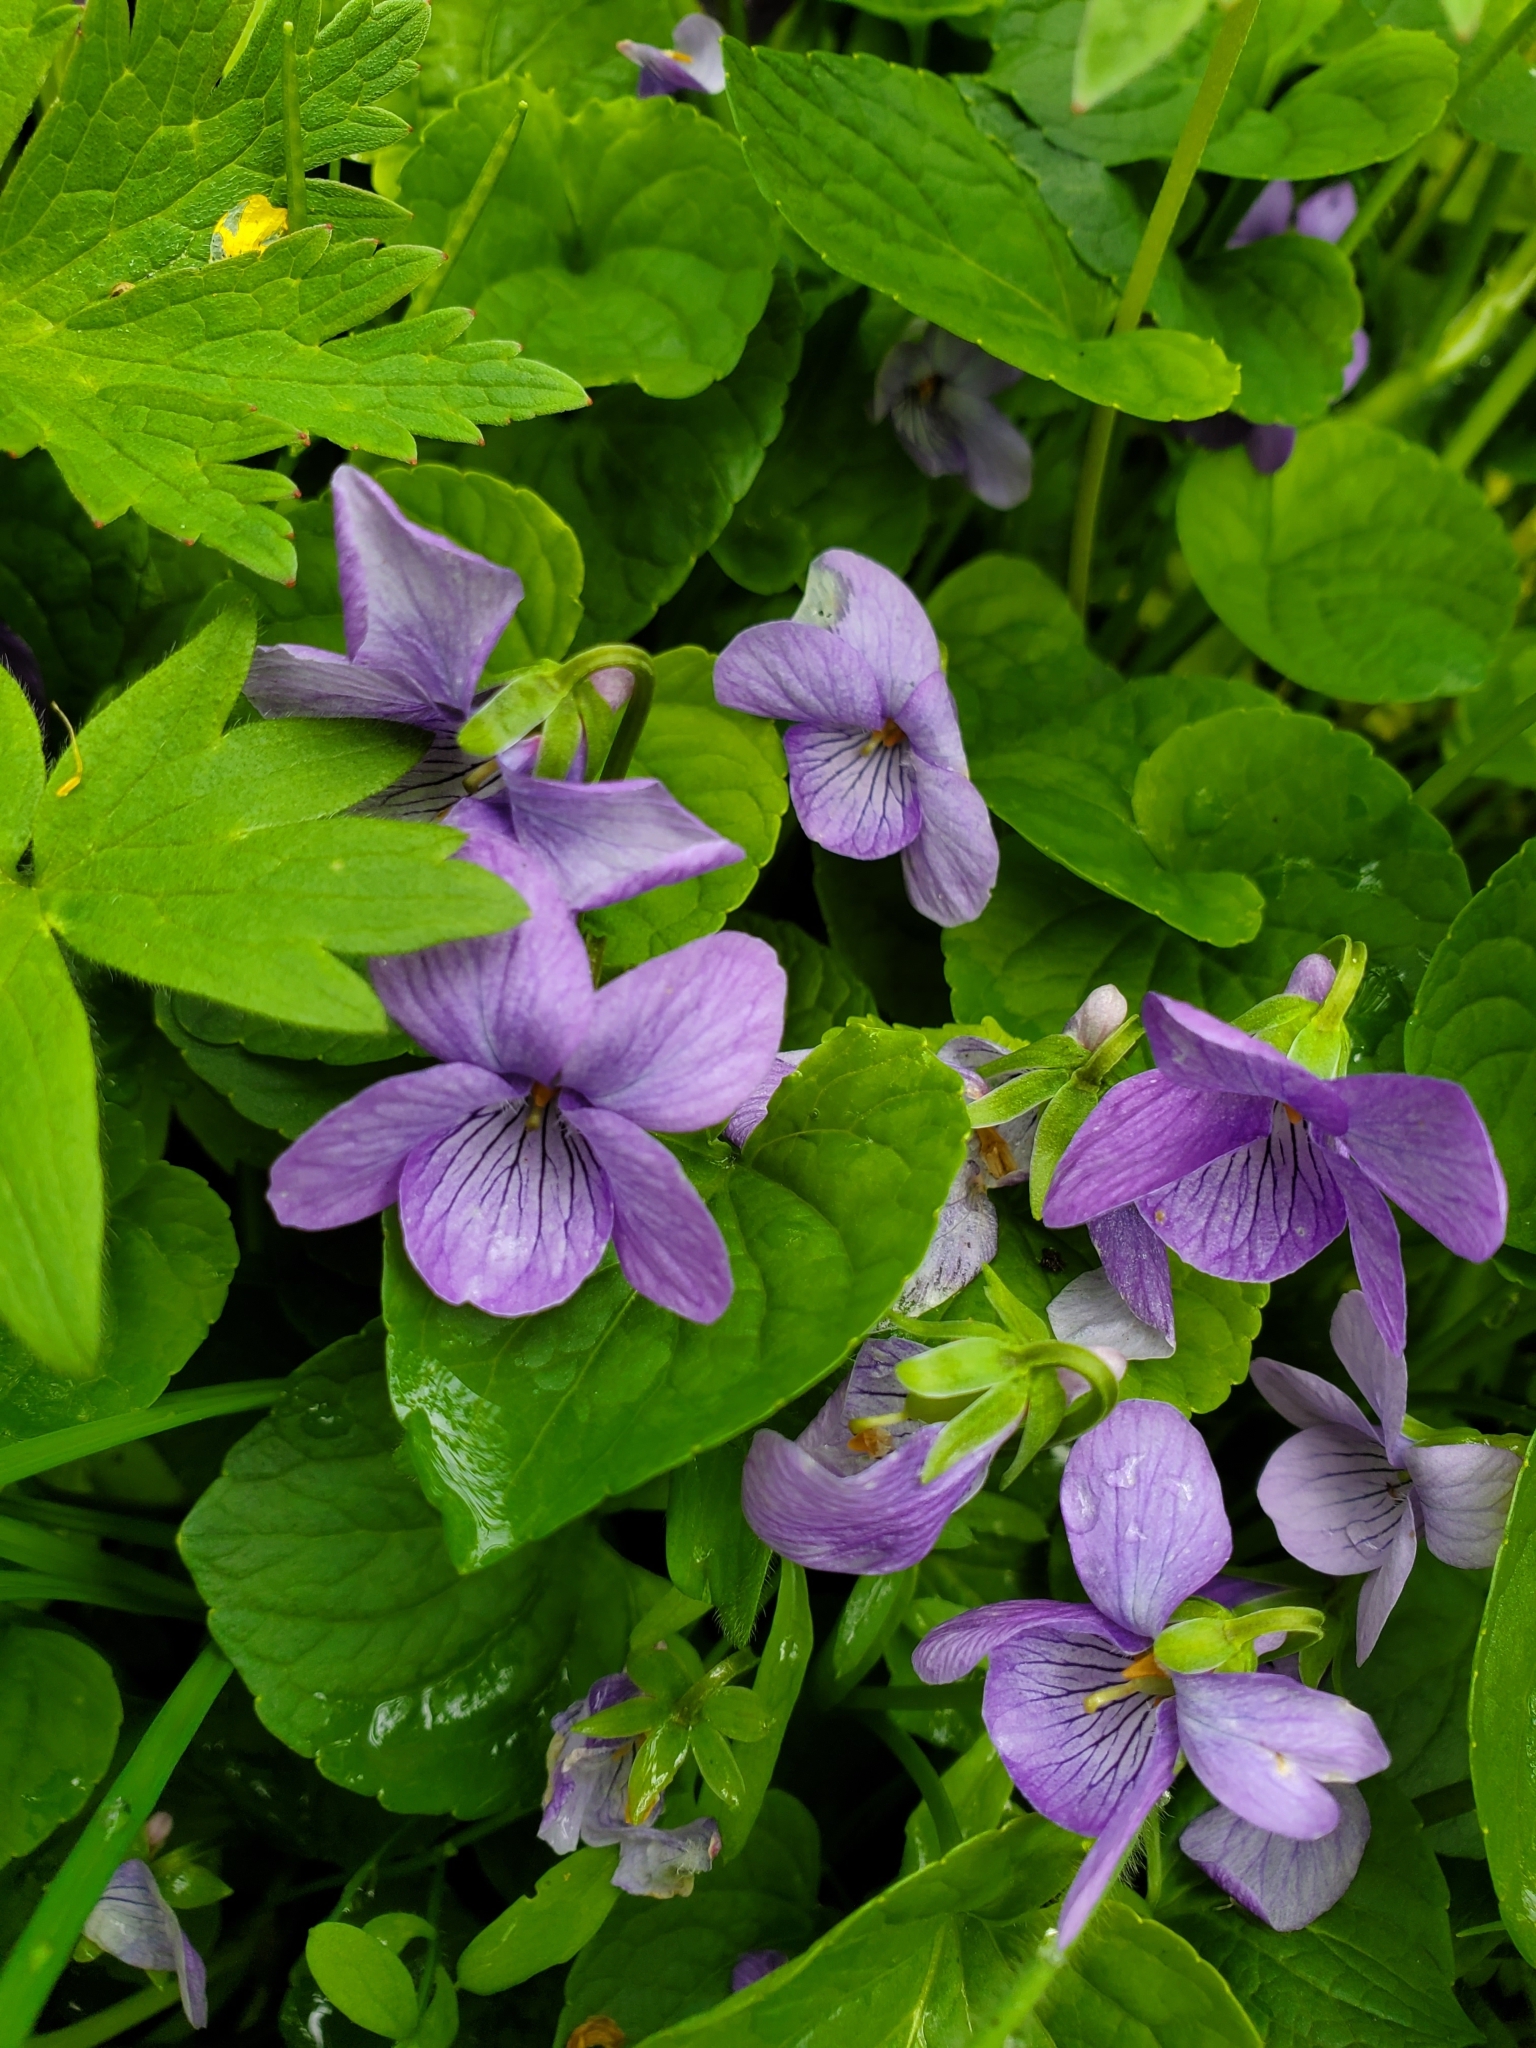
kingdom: Plantae
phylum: Tracheophyta
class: Magnoliopsida
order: Malpighiales
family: Violaceae
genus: Viola
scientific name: Viola langsdorffii
